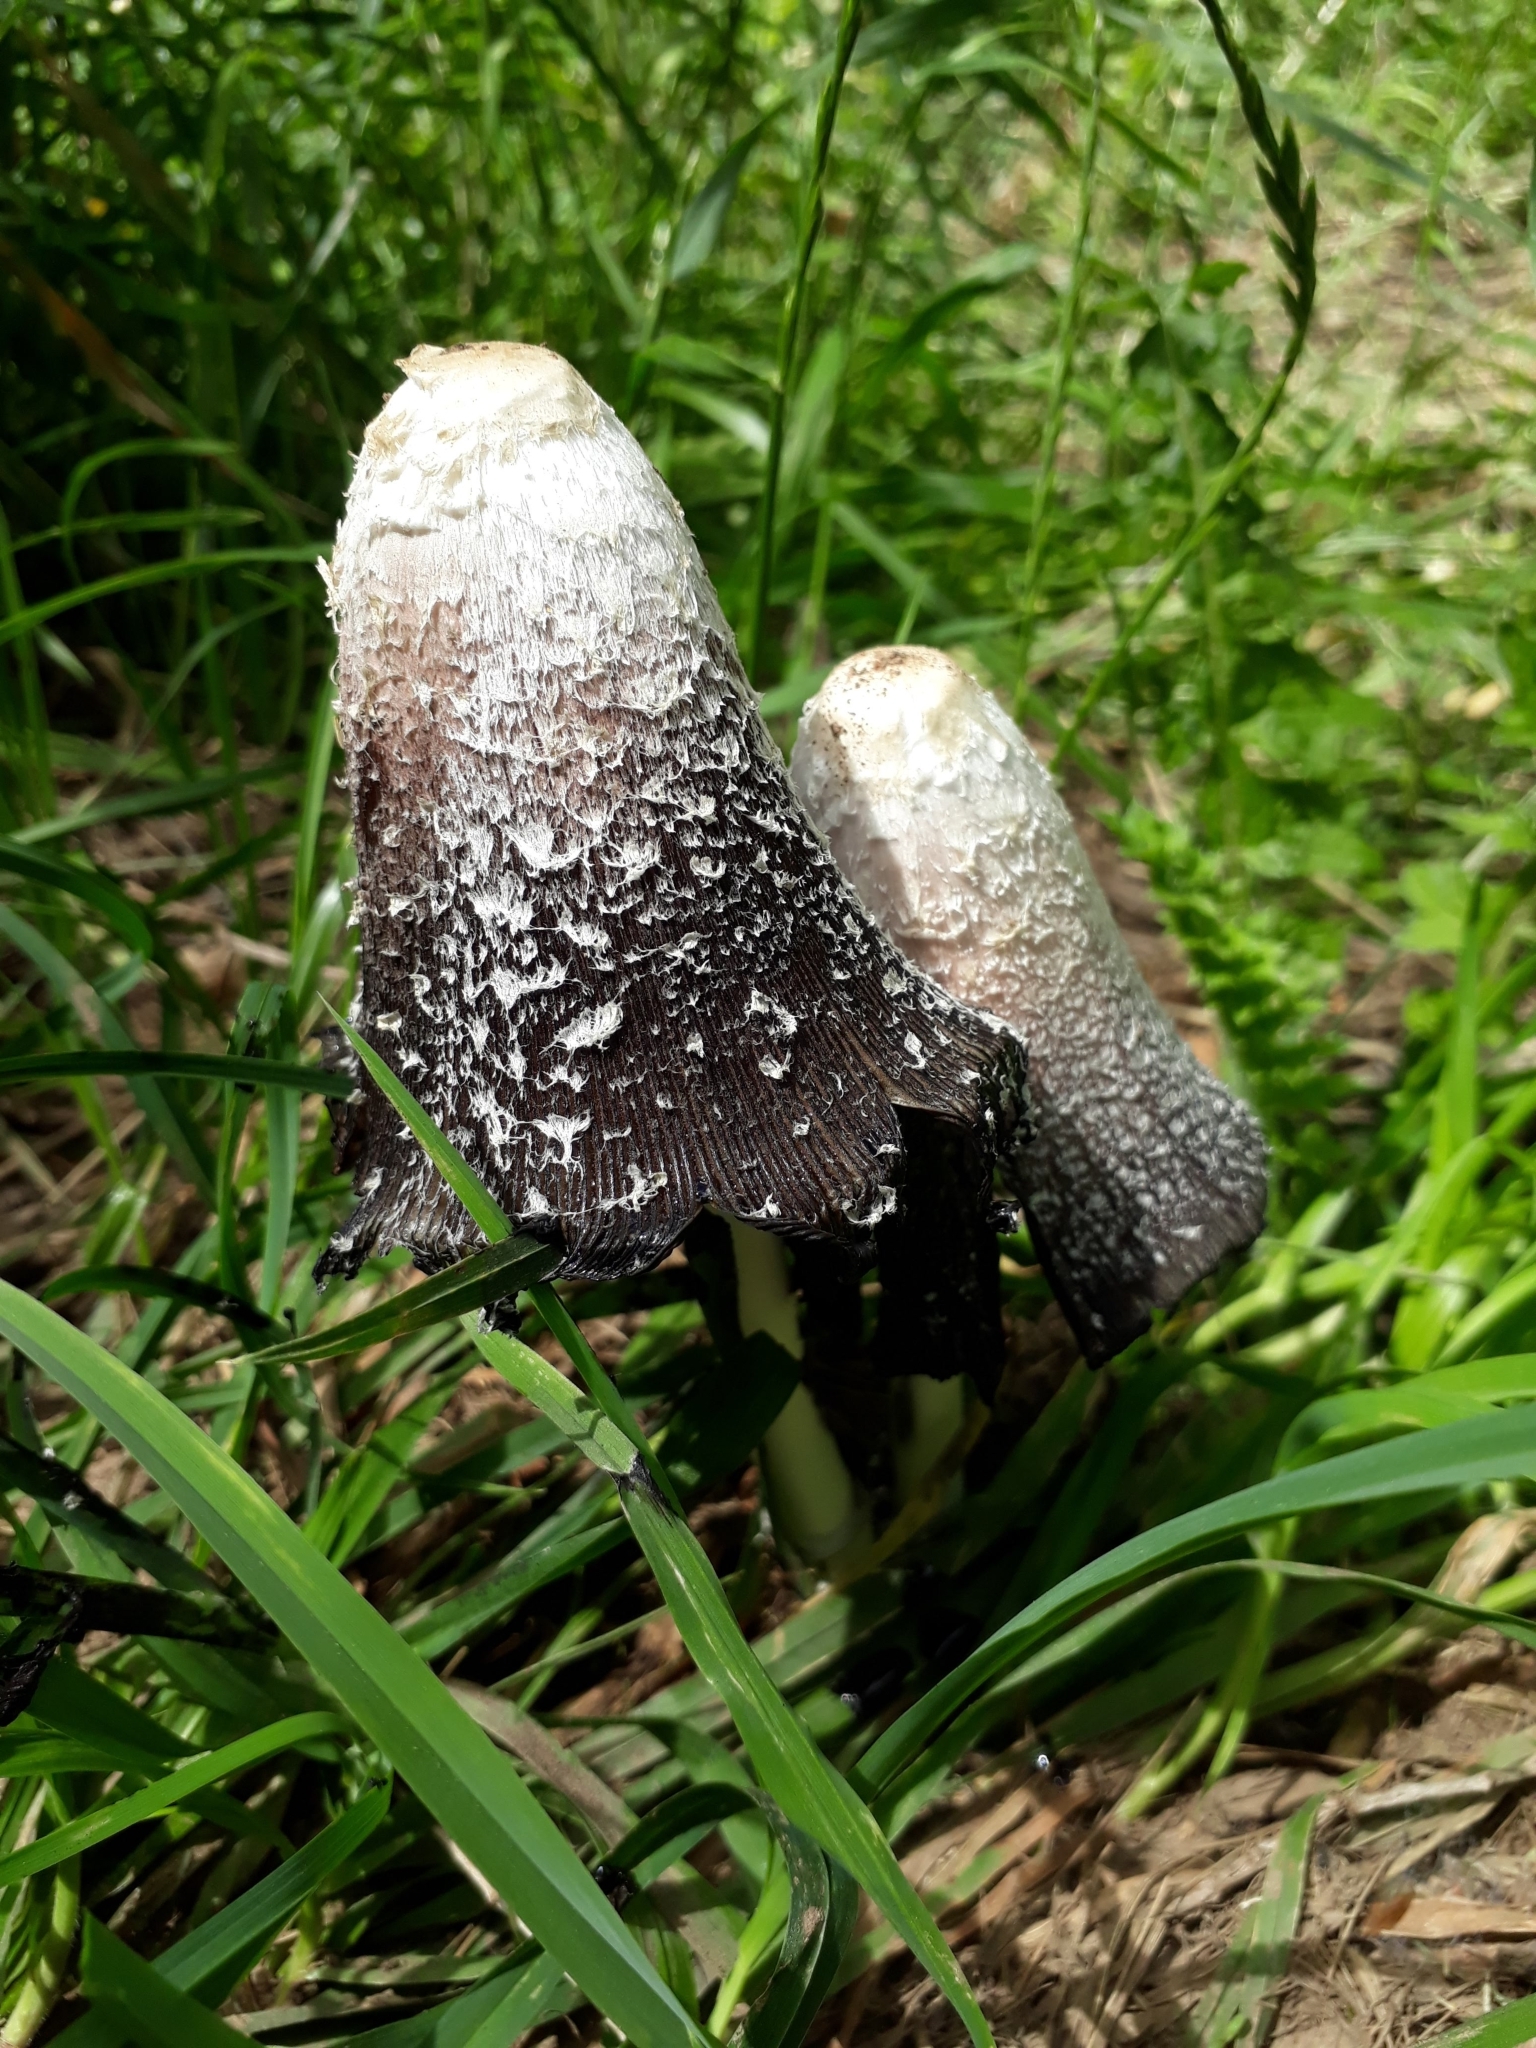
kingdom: Fungi
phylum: Basidiomycota
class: Agaricomycetes
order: Agaricales
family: Agaricaceae
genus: Coprinus
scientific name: Coprinus comatus
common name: Lawyer's wig
